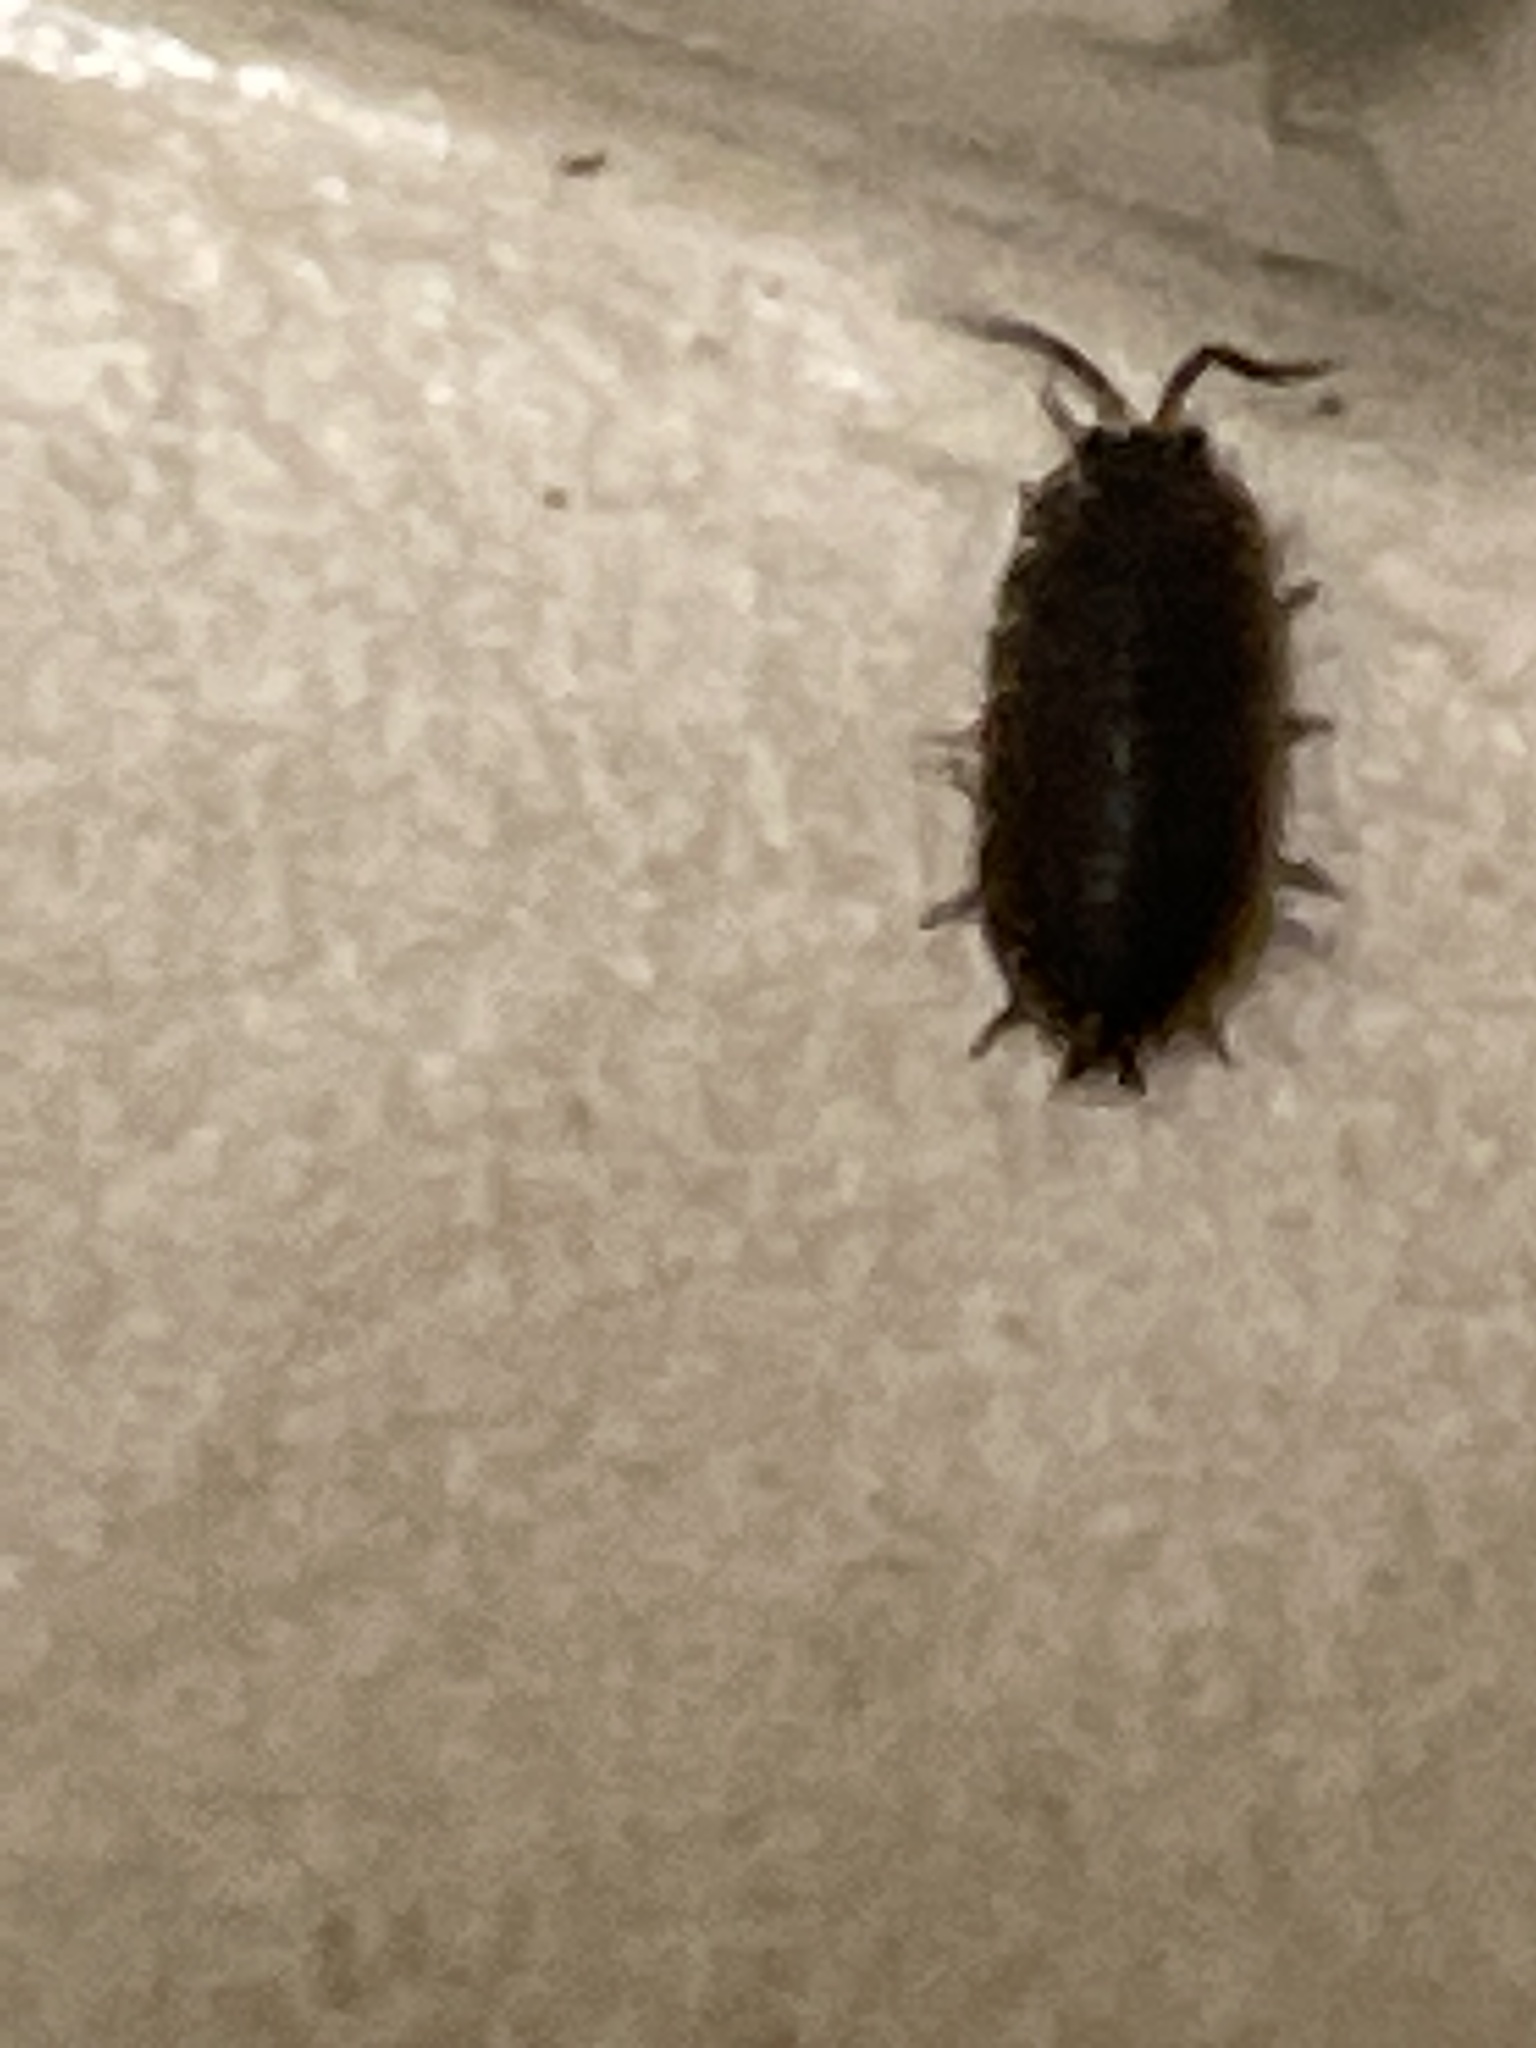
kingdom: Animalia
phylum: Arthropoda
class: Malacostraca
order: Isopoda
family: Porcellionidae
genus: Porcellio
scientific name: Porcellio scaber
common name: Common rough woodlouse
